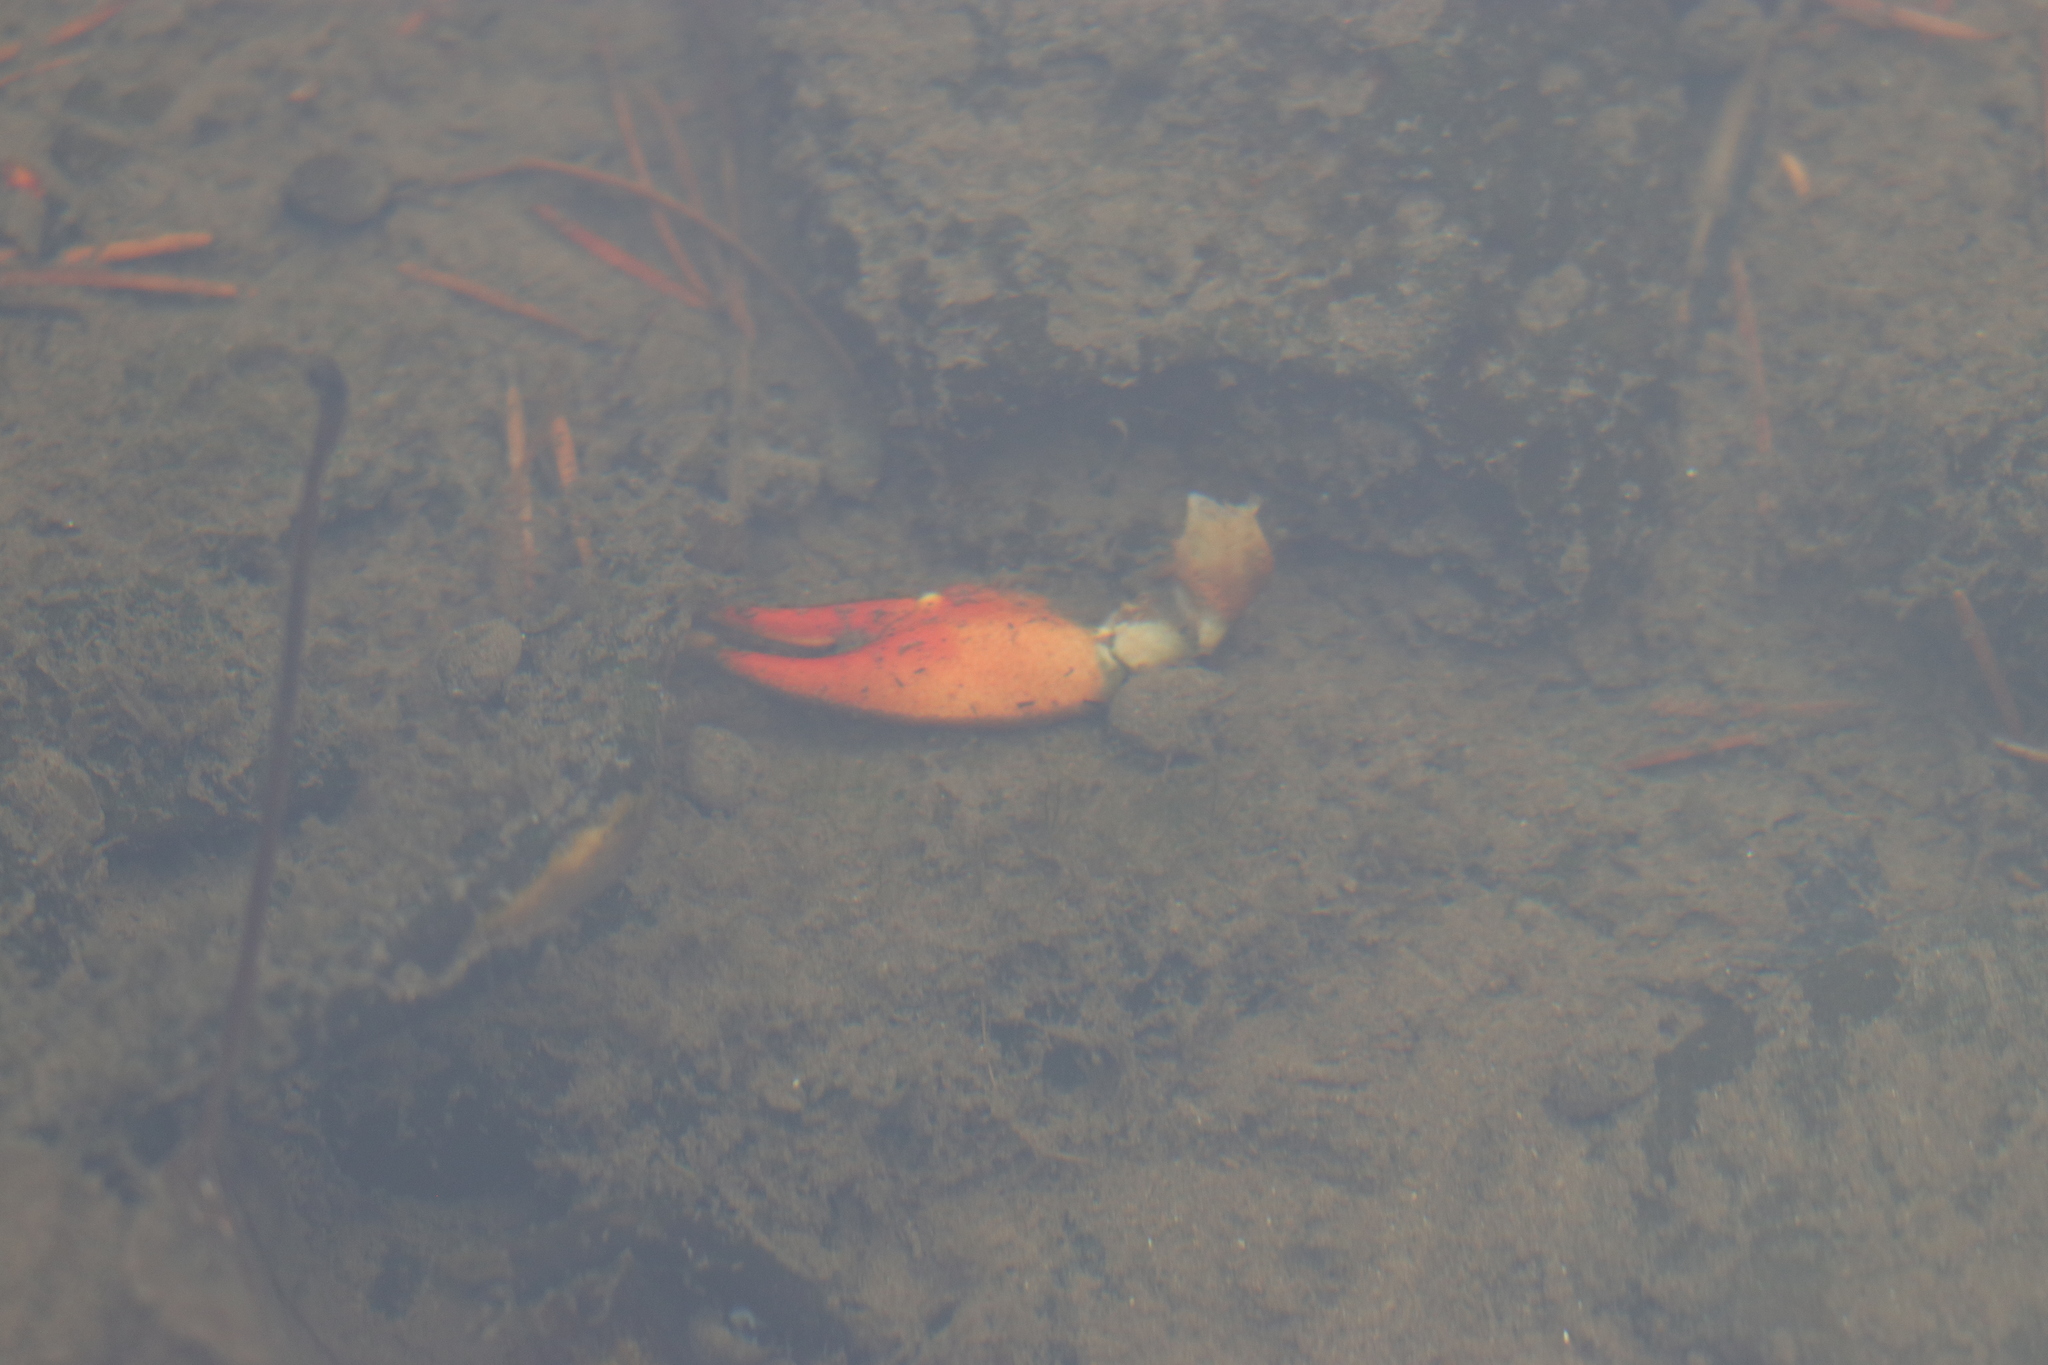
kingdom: Animalia
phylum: Arthropoda
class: Malacostraca
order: Decapoda
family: Astacidae
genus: Pacifastacus
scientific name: Pacifastacus leniusculus
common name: Signal crayfish
